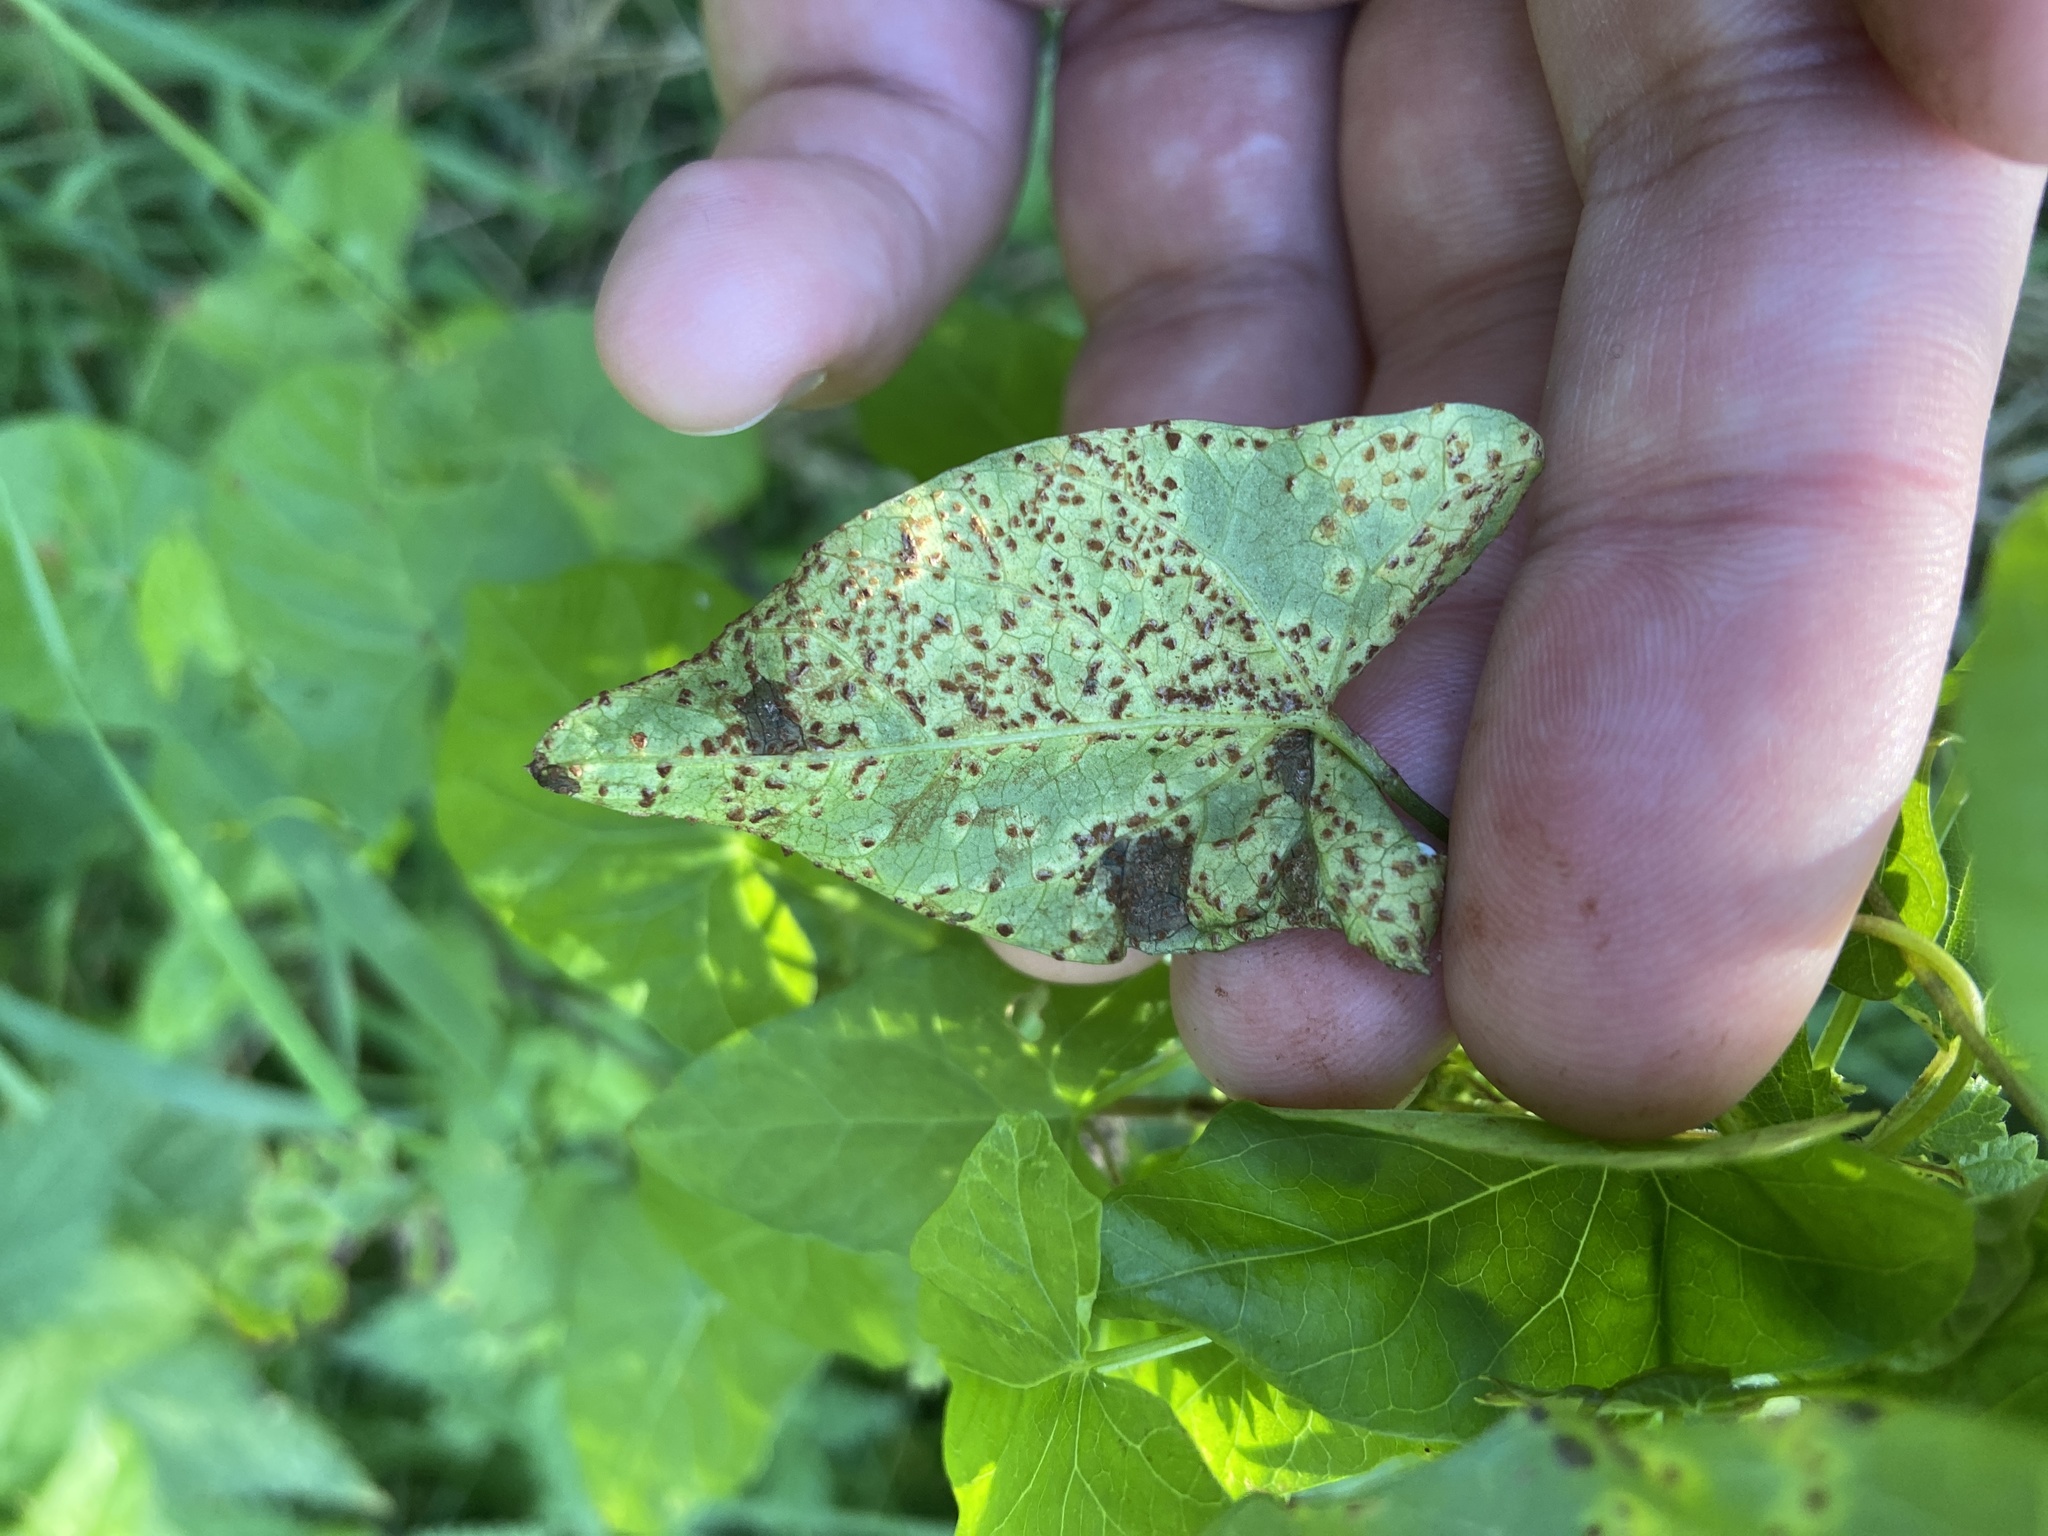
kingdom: Fungi
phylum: Basidiomycota
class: Pucciniomycetes
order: Pucciniales
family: Pucciniaceae
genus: Puccinia
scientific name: Puccinia convolvuli
